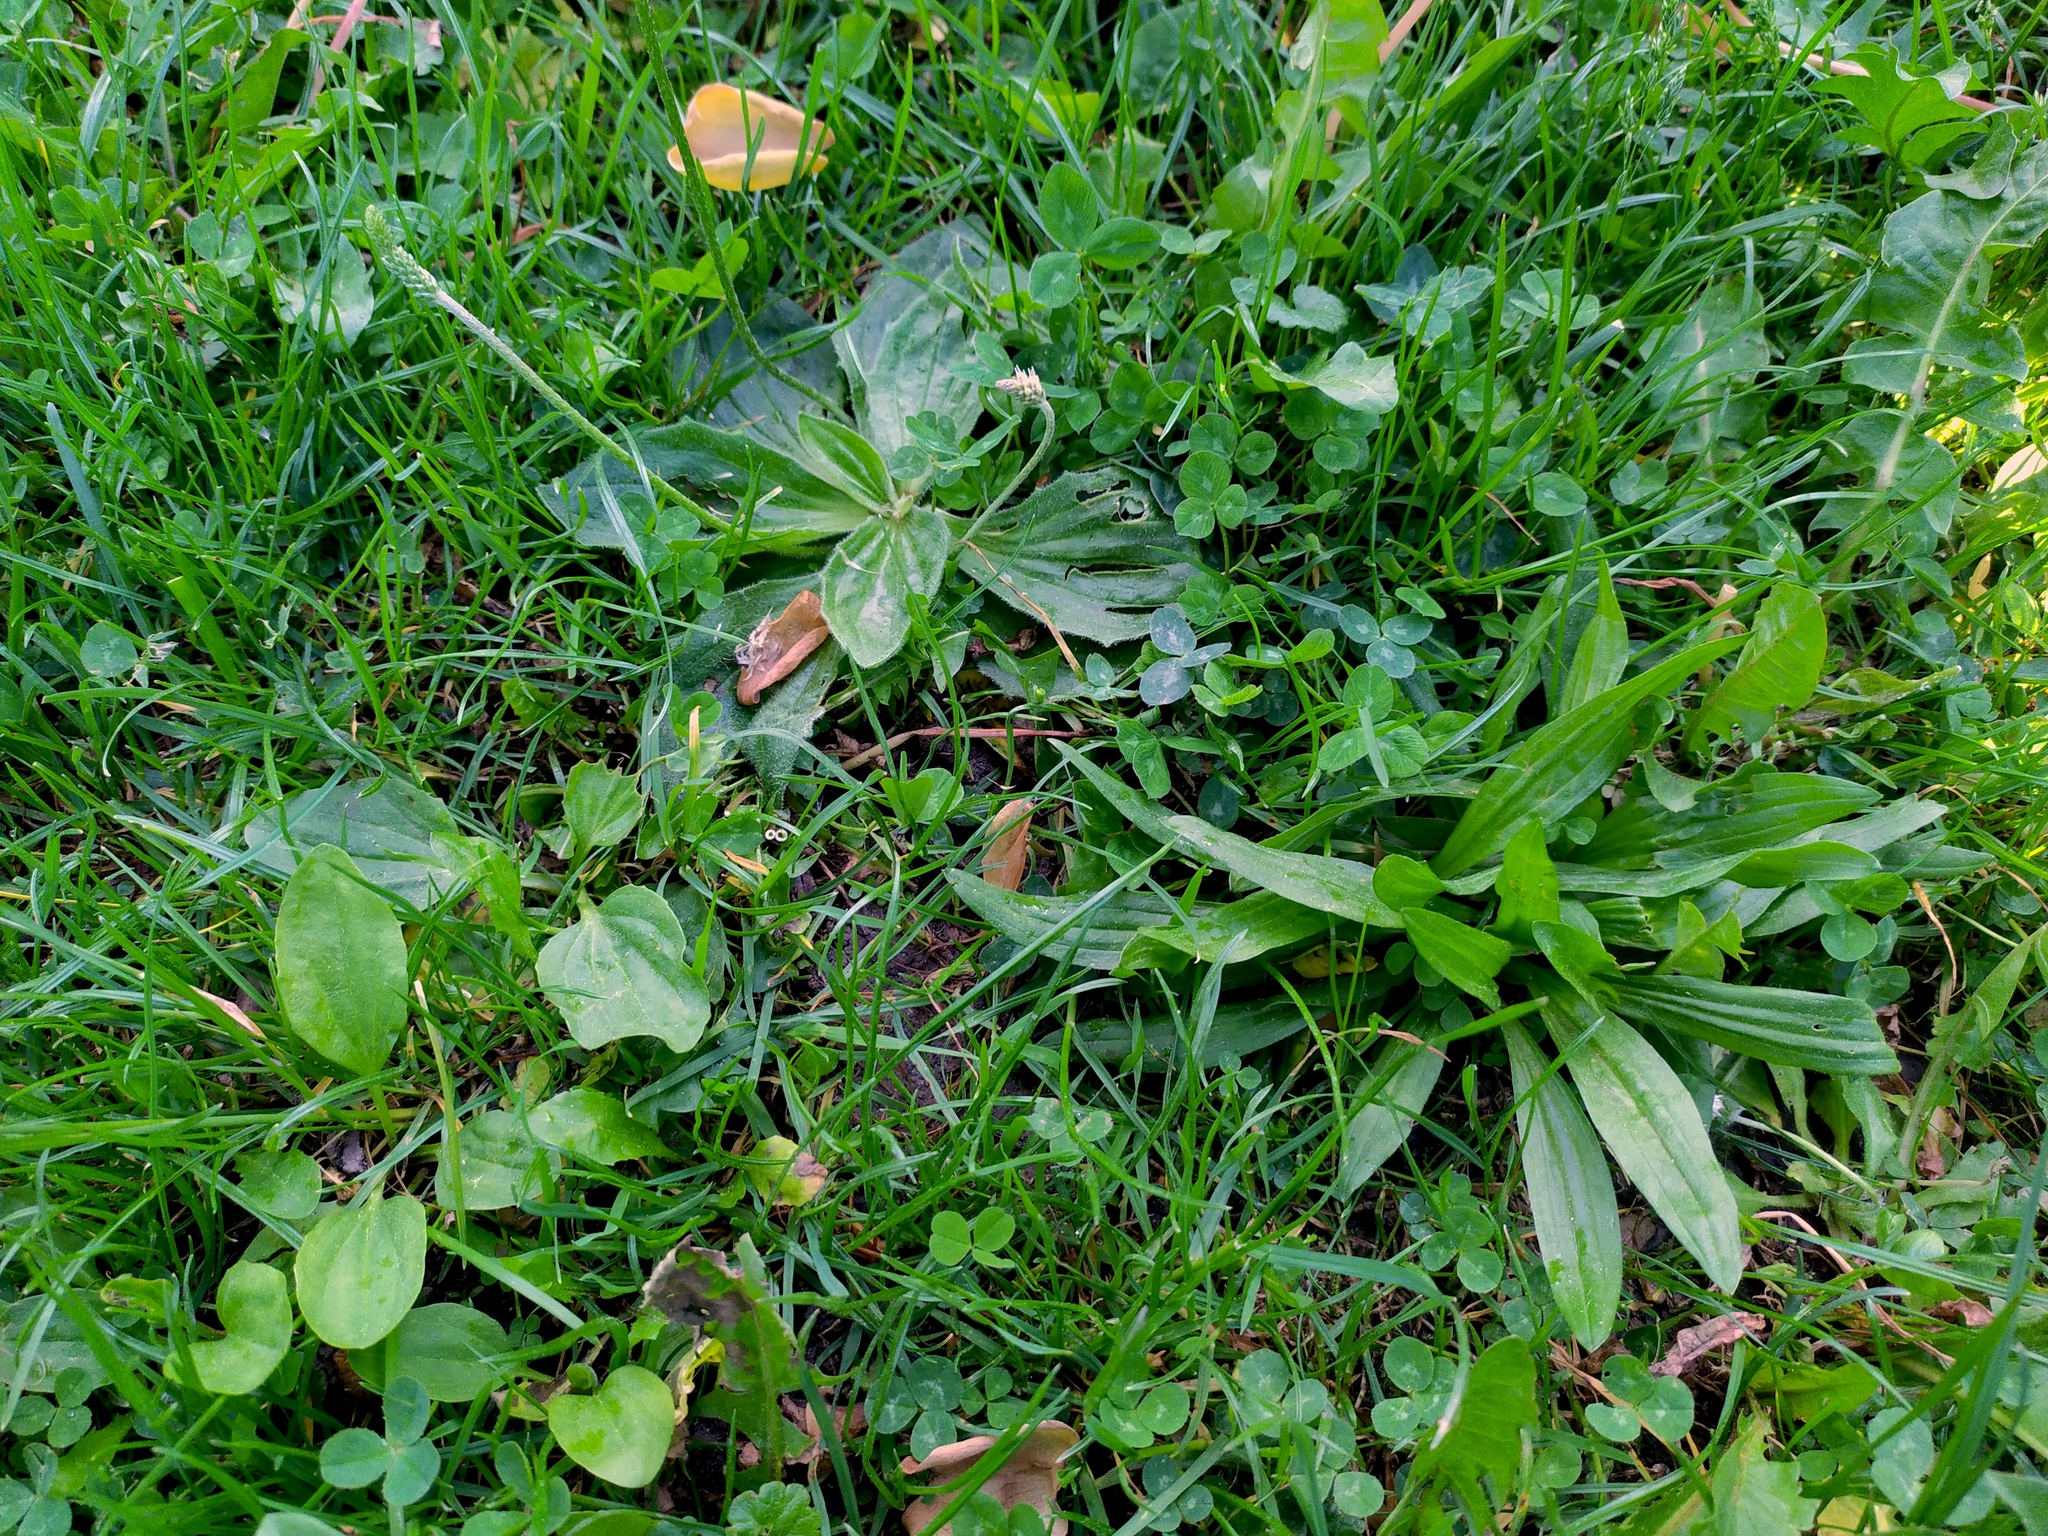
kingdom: Plantae
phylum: Tracheophyta
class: Magnoliopsida
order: Lamiales
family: Plantaginaceae
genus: Plantago
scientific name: Plantago media
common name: Hoary plantain
